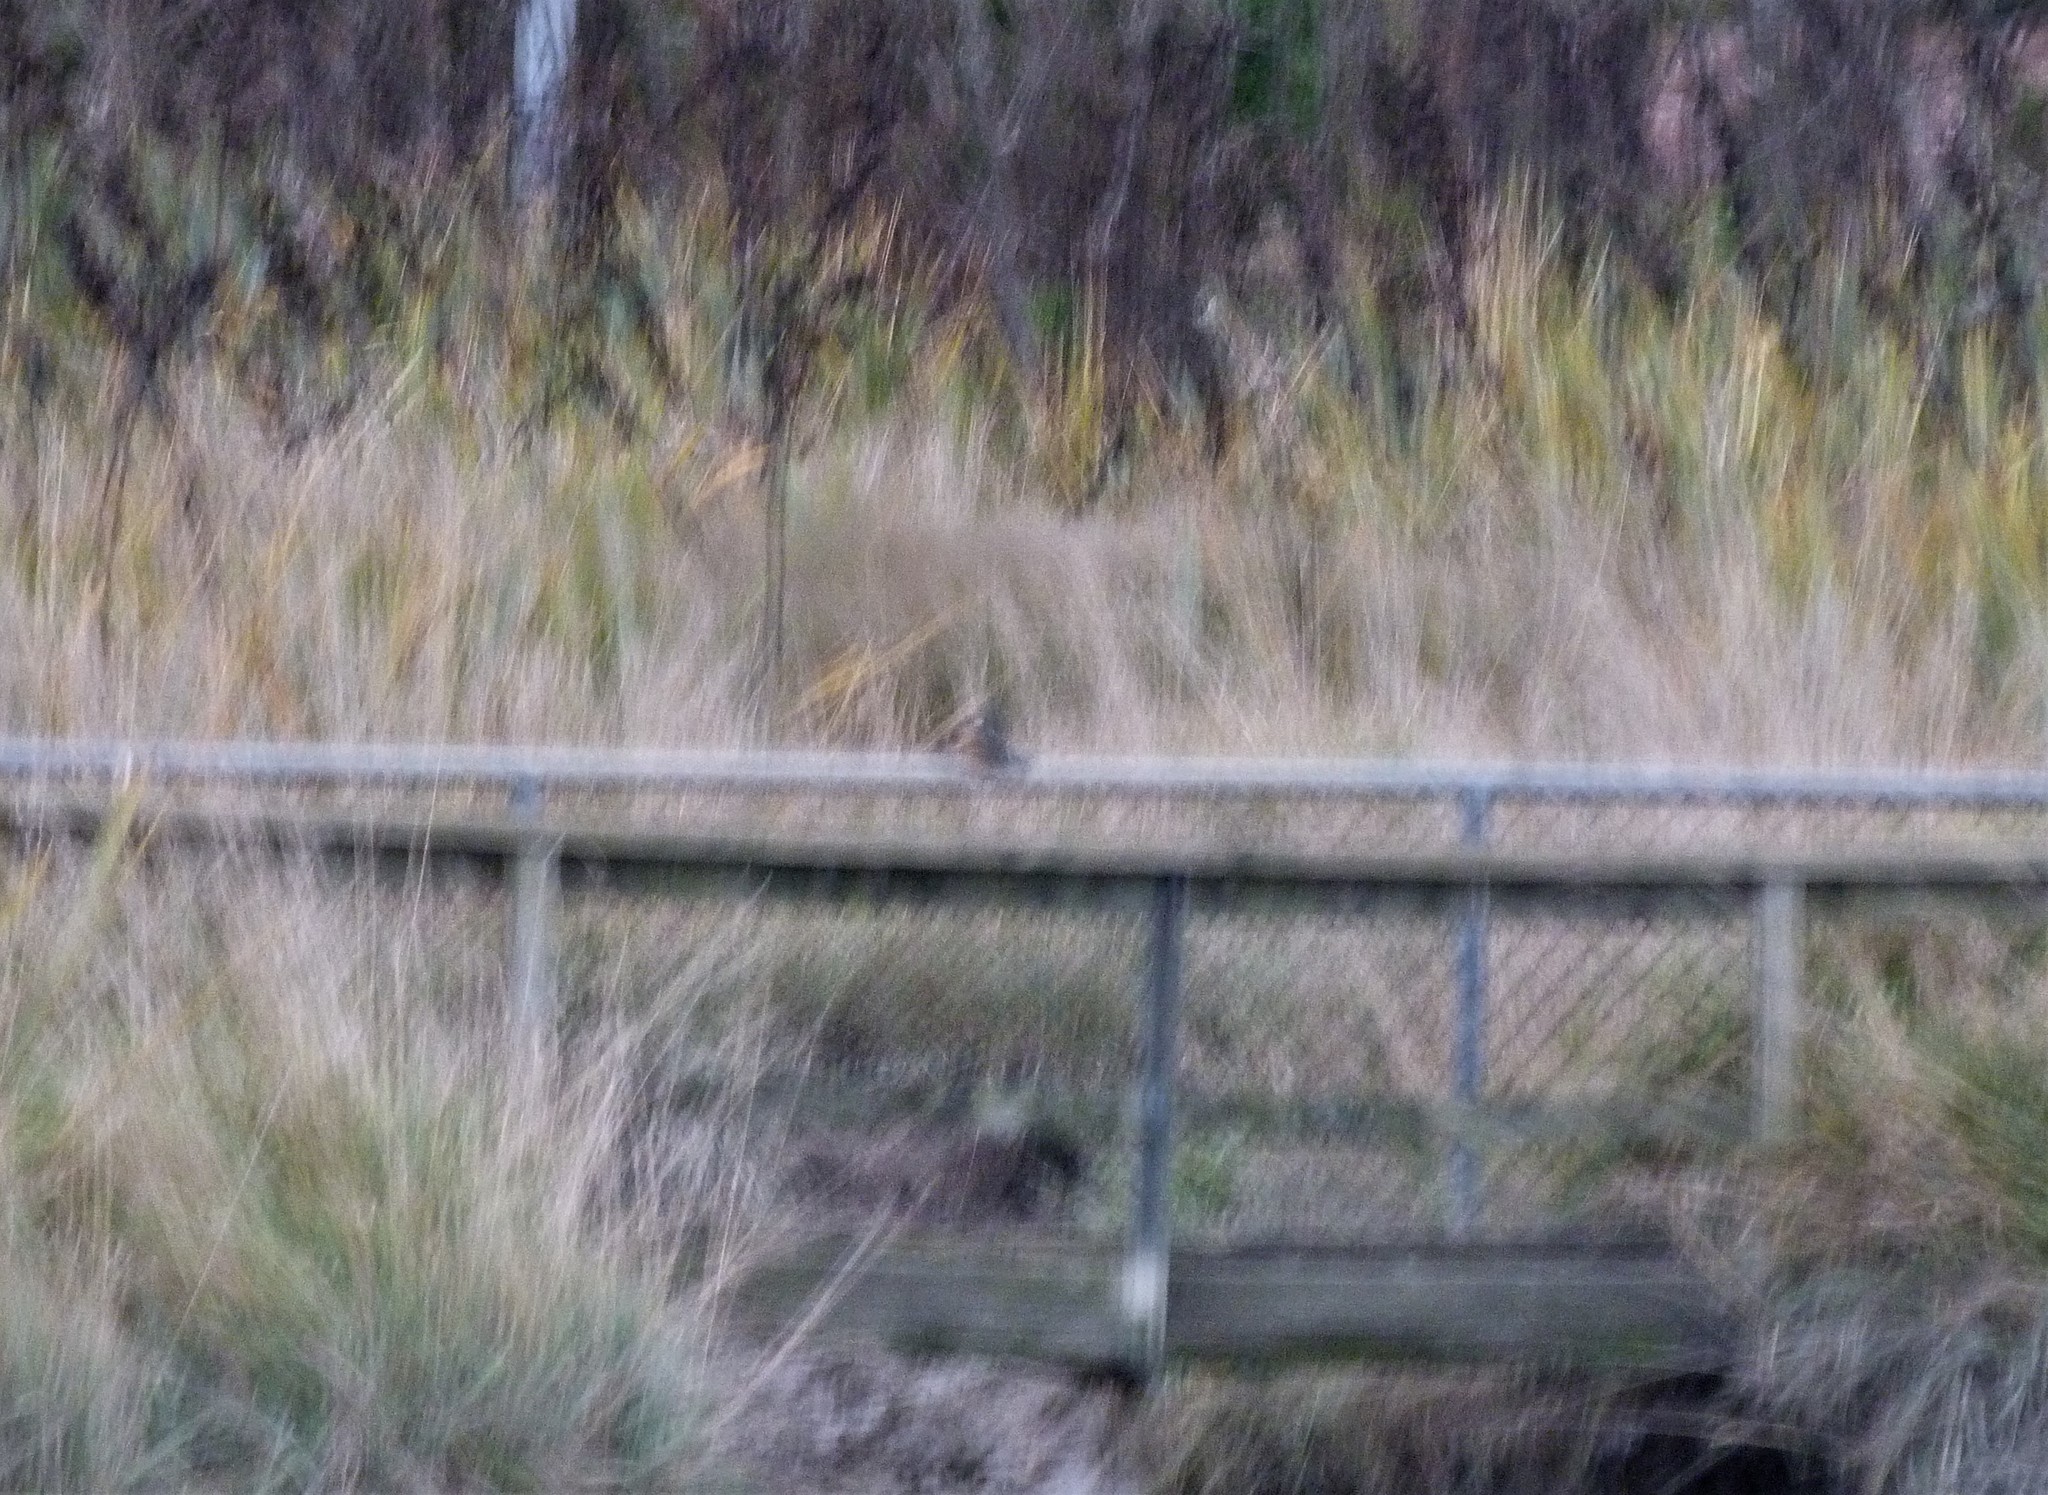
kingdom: Animalia
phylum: Chordata
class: Aves
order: Coraciiformes
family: Alcedinidae
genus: Todiramphus
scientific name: Todiramphus sanctus
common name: Sacred kingfisher
